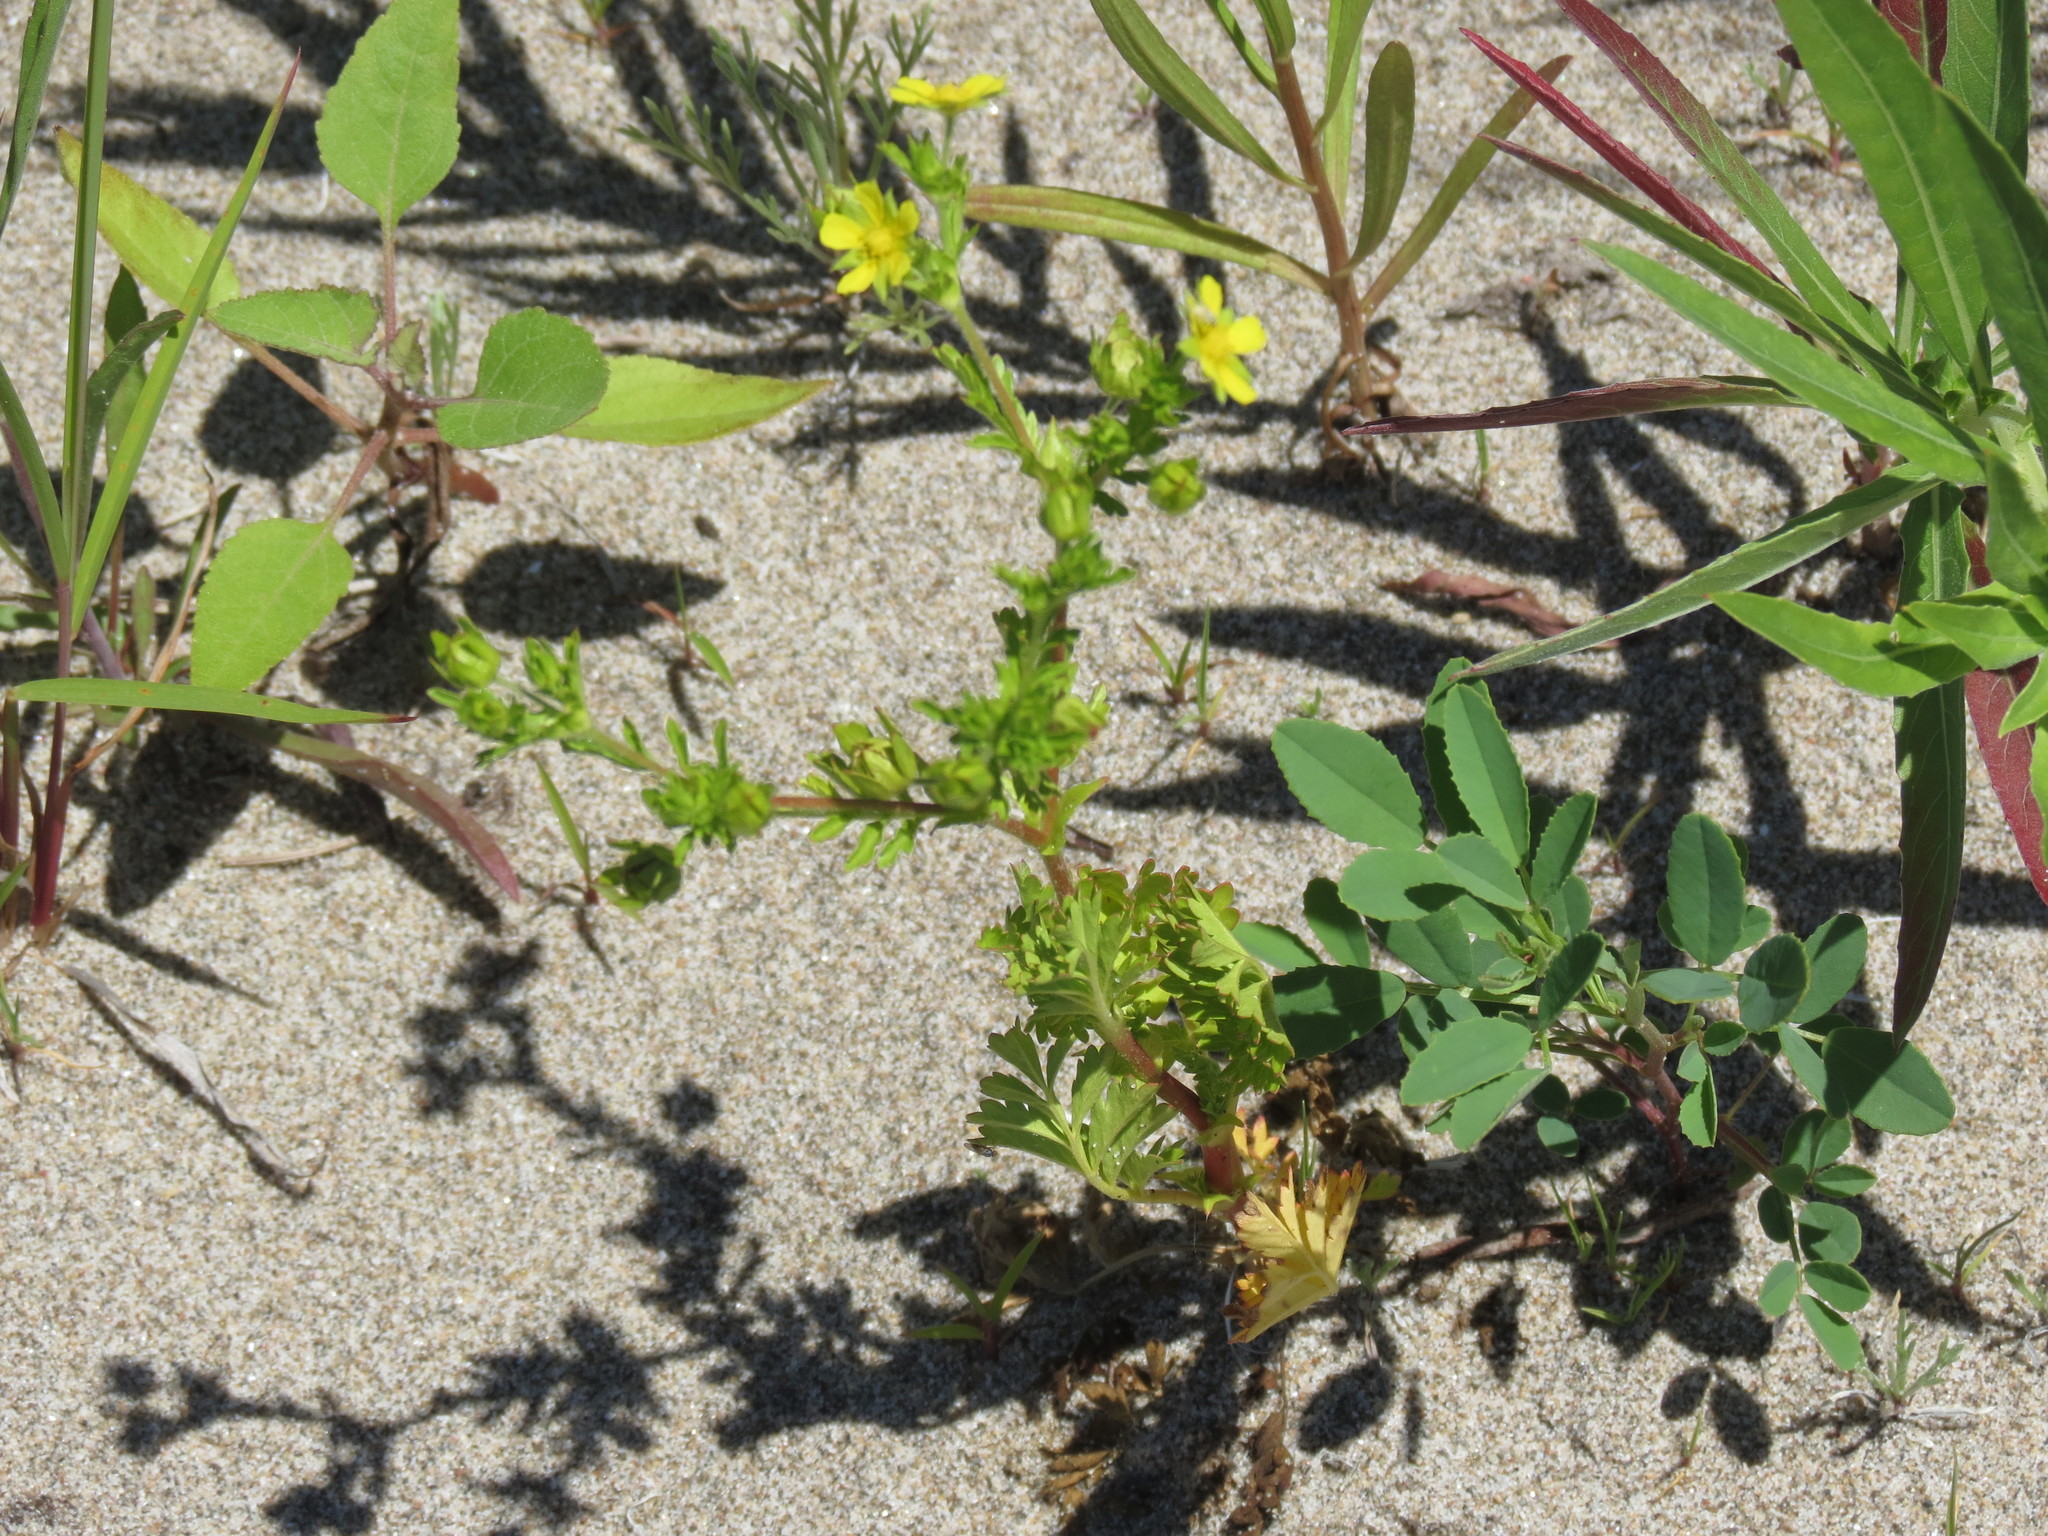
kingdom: Plantae
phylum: Tracheophyta
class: Magnoliopsida
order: Rosales
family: Rosaceae
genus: Potentilla
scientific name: Potentilla supina
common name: Prostrate cinquefoil
